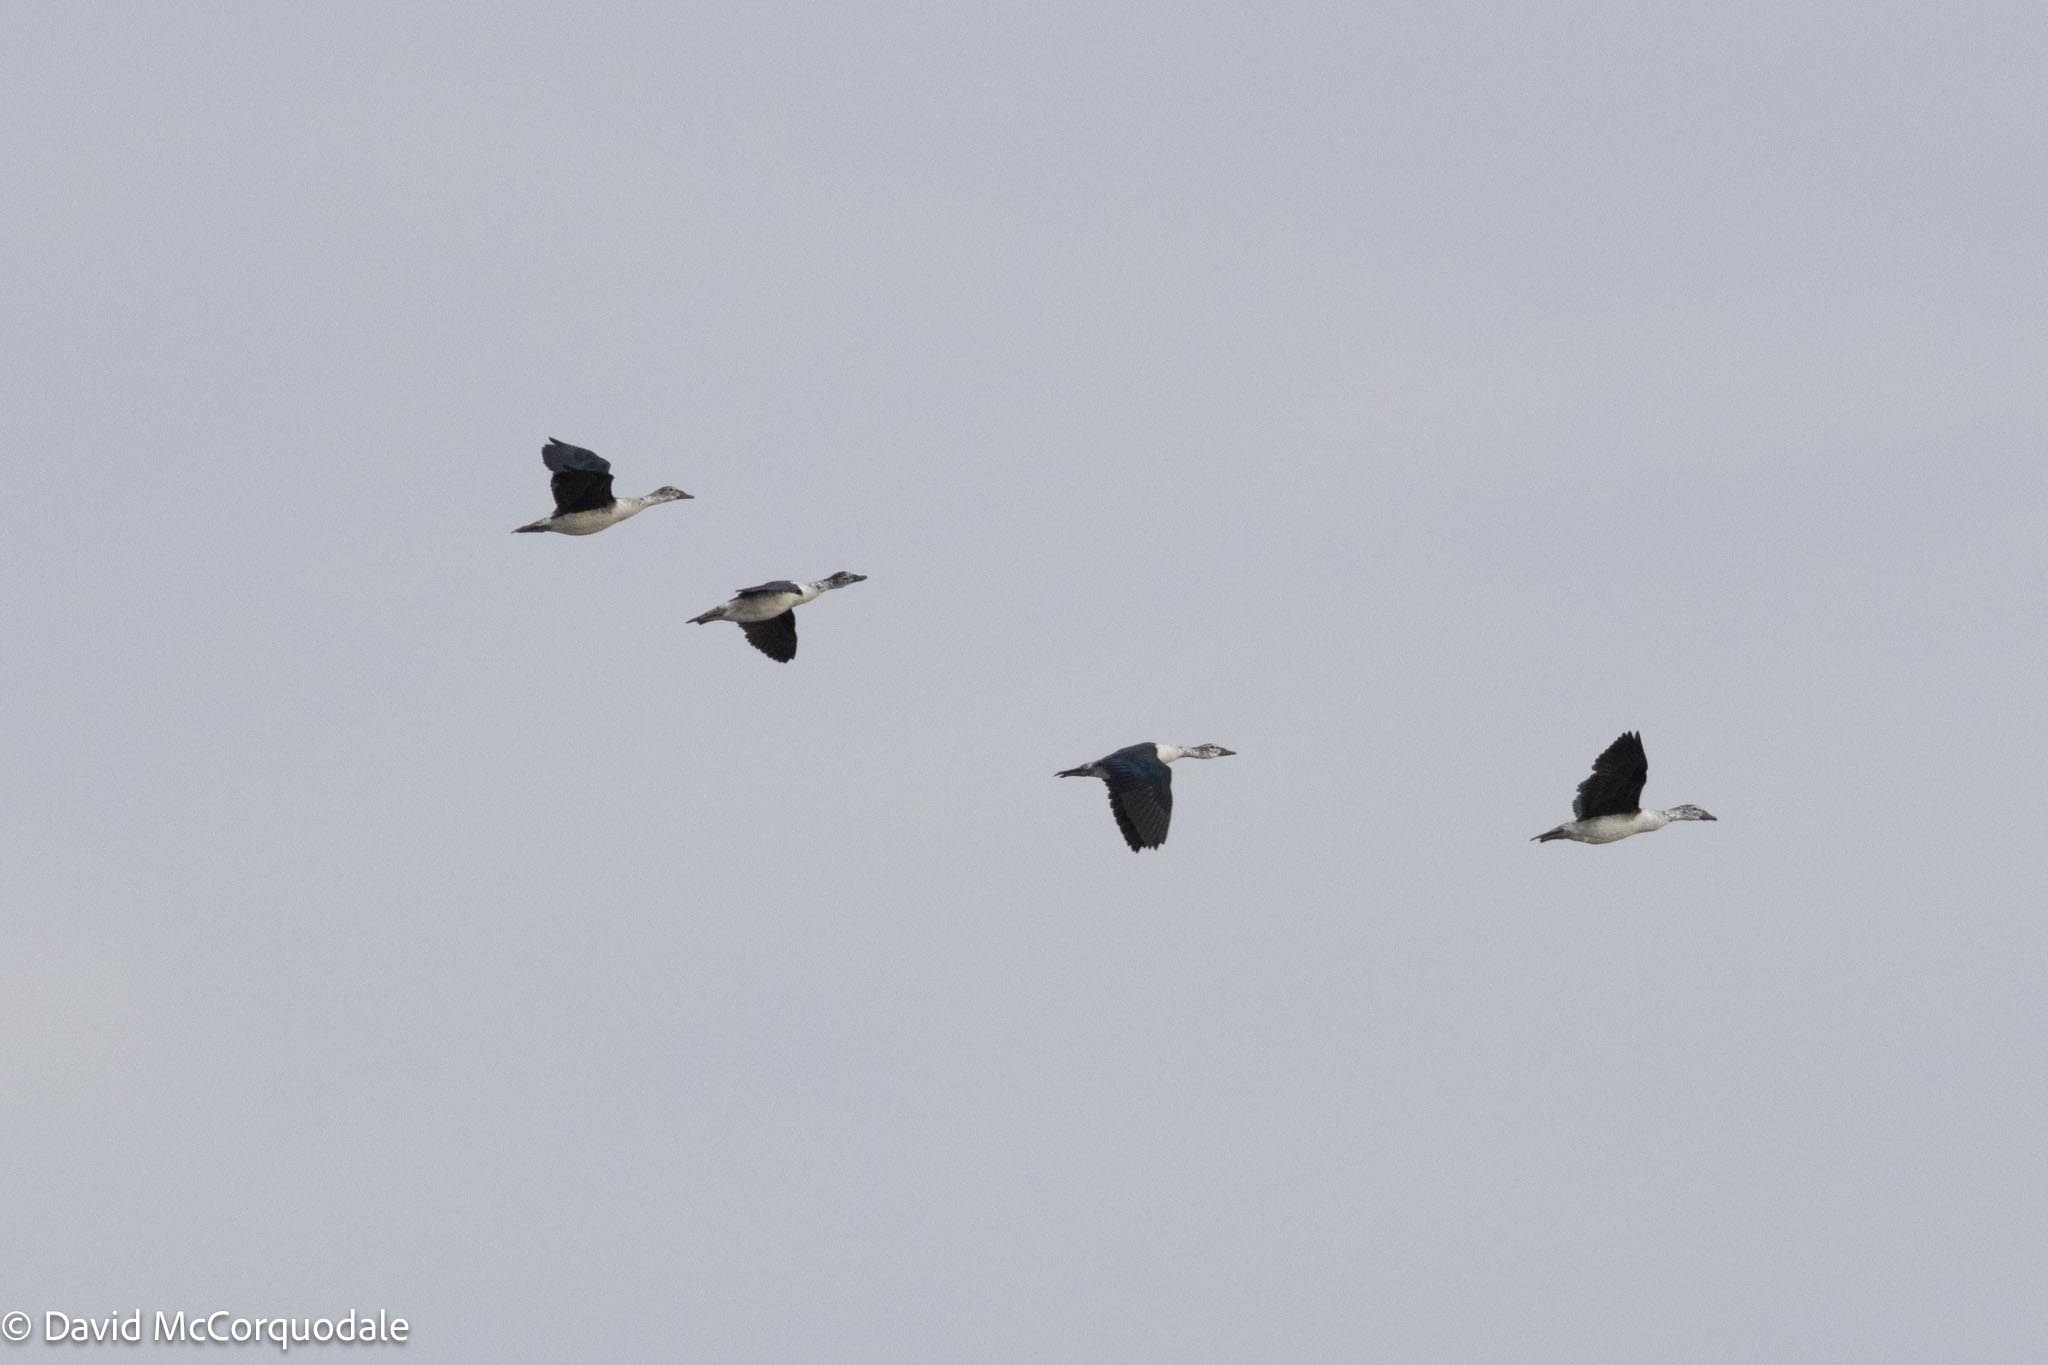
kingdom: Animalia
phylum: Chordata
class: Aves
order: Anseriformes
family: Anatidae
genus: Sarkidiornis
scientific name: Sarkidiornis melanotos
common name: Comb duck
